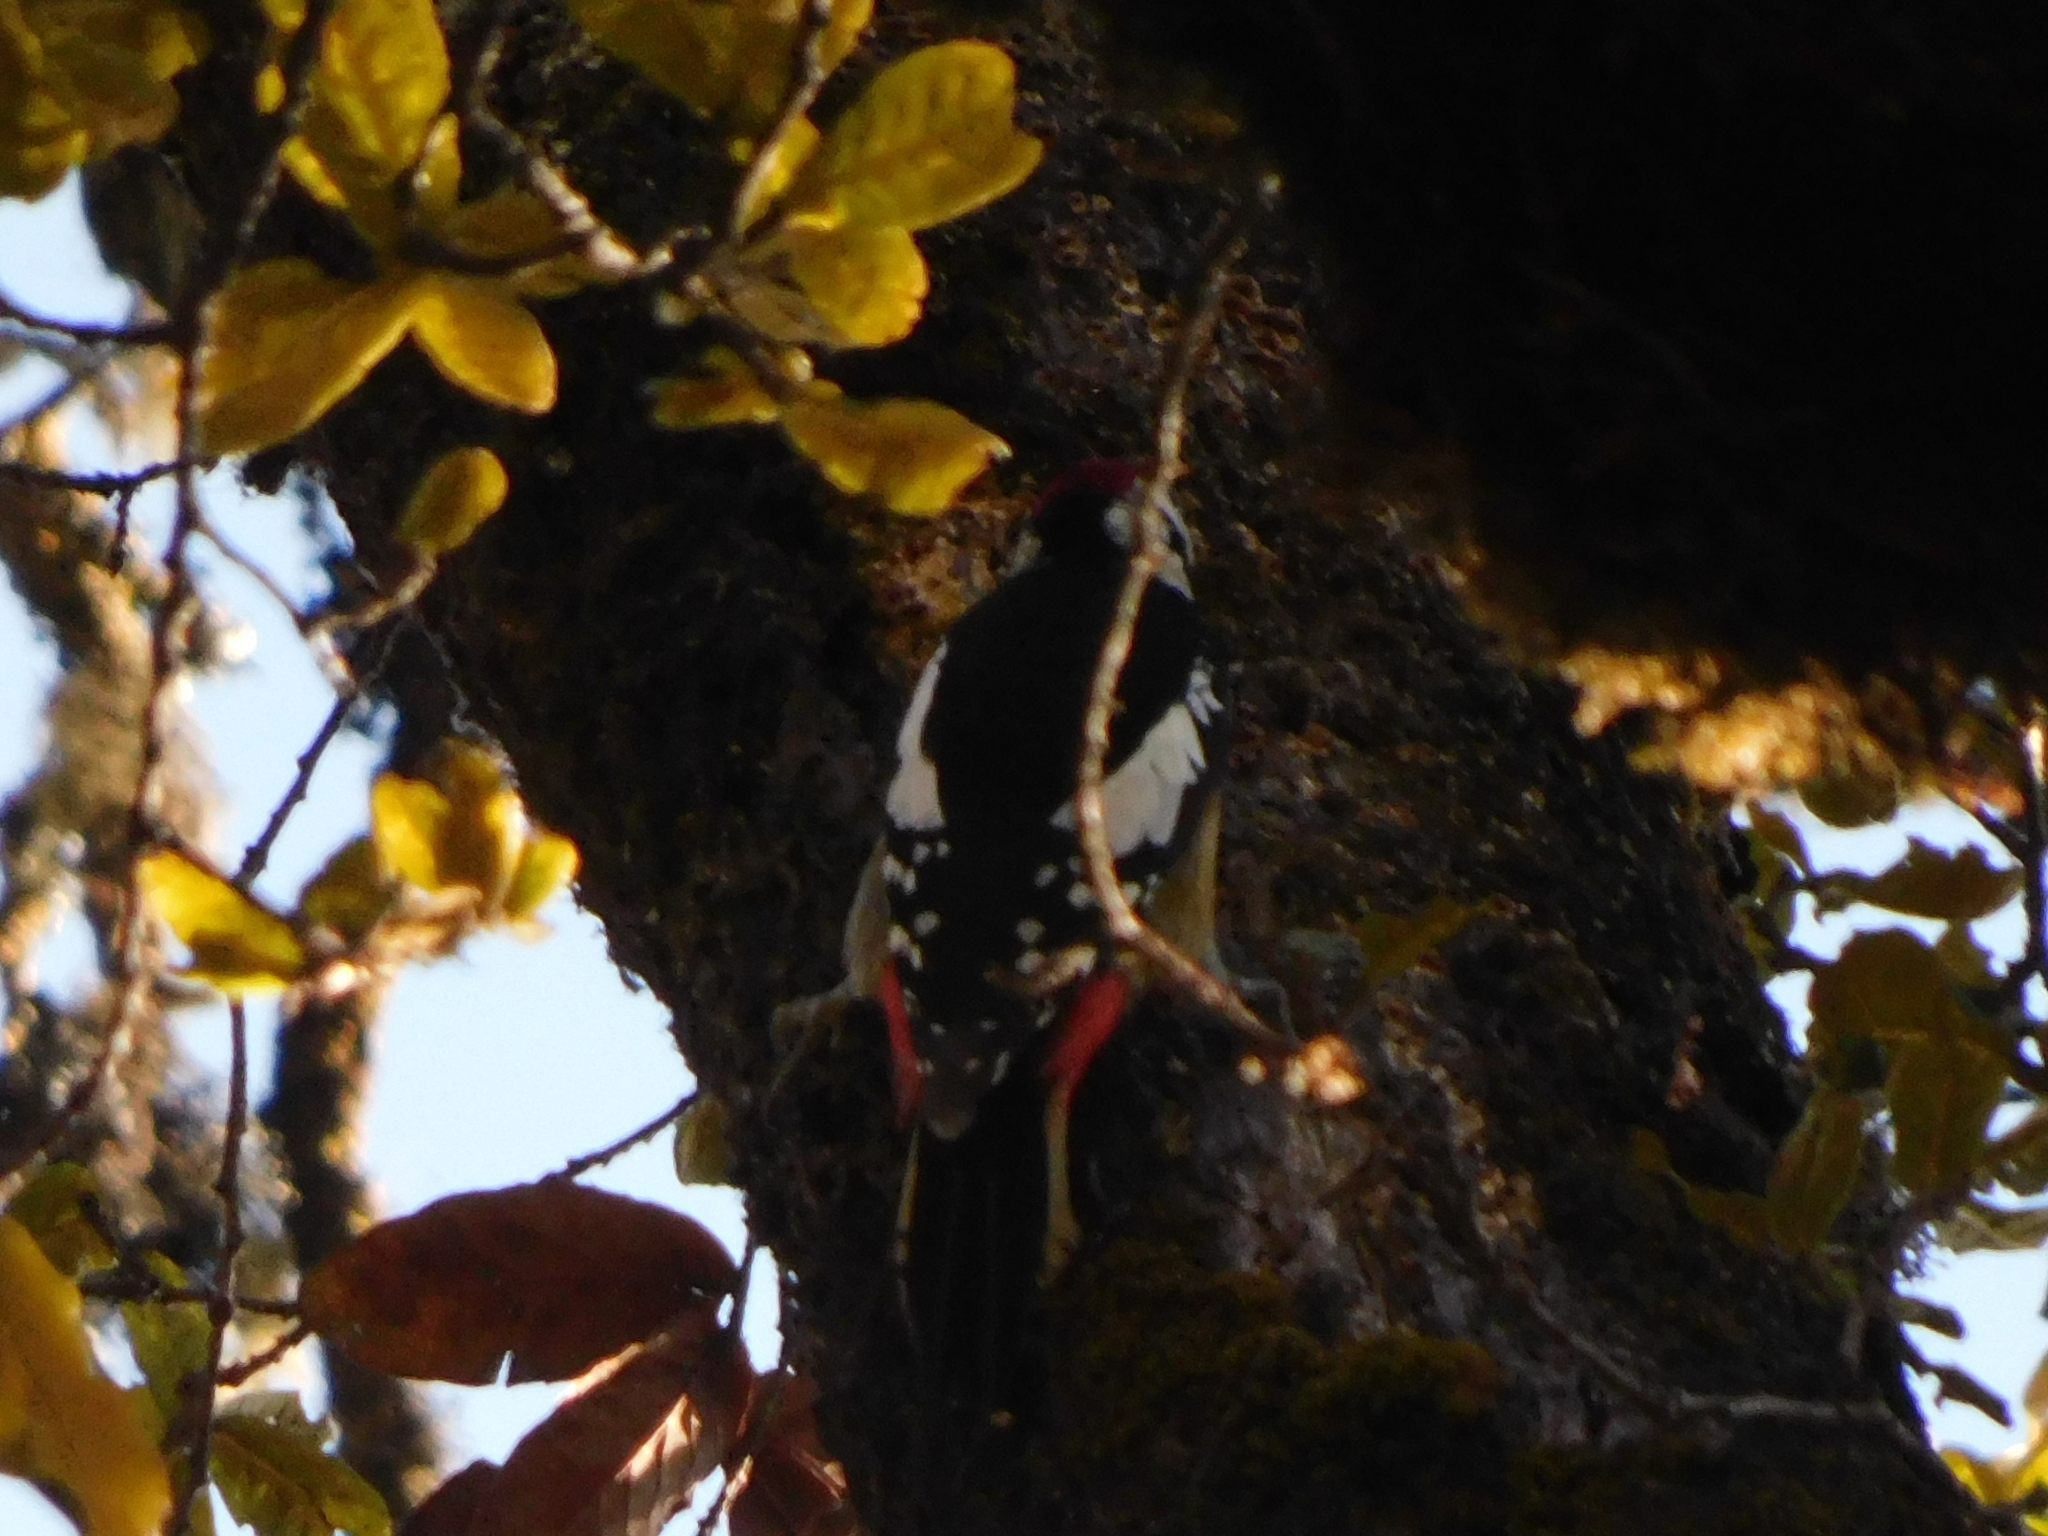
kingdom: Animalia
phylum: Chordata
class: Aves
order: Piciformes
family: Picidae
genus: Dendrocopos
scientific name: Dendrocopos himalayensis
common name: Himalayan woodpecker
